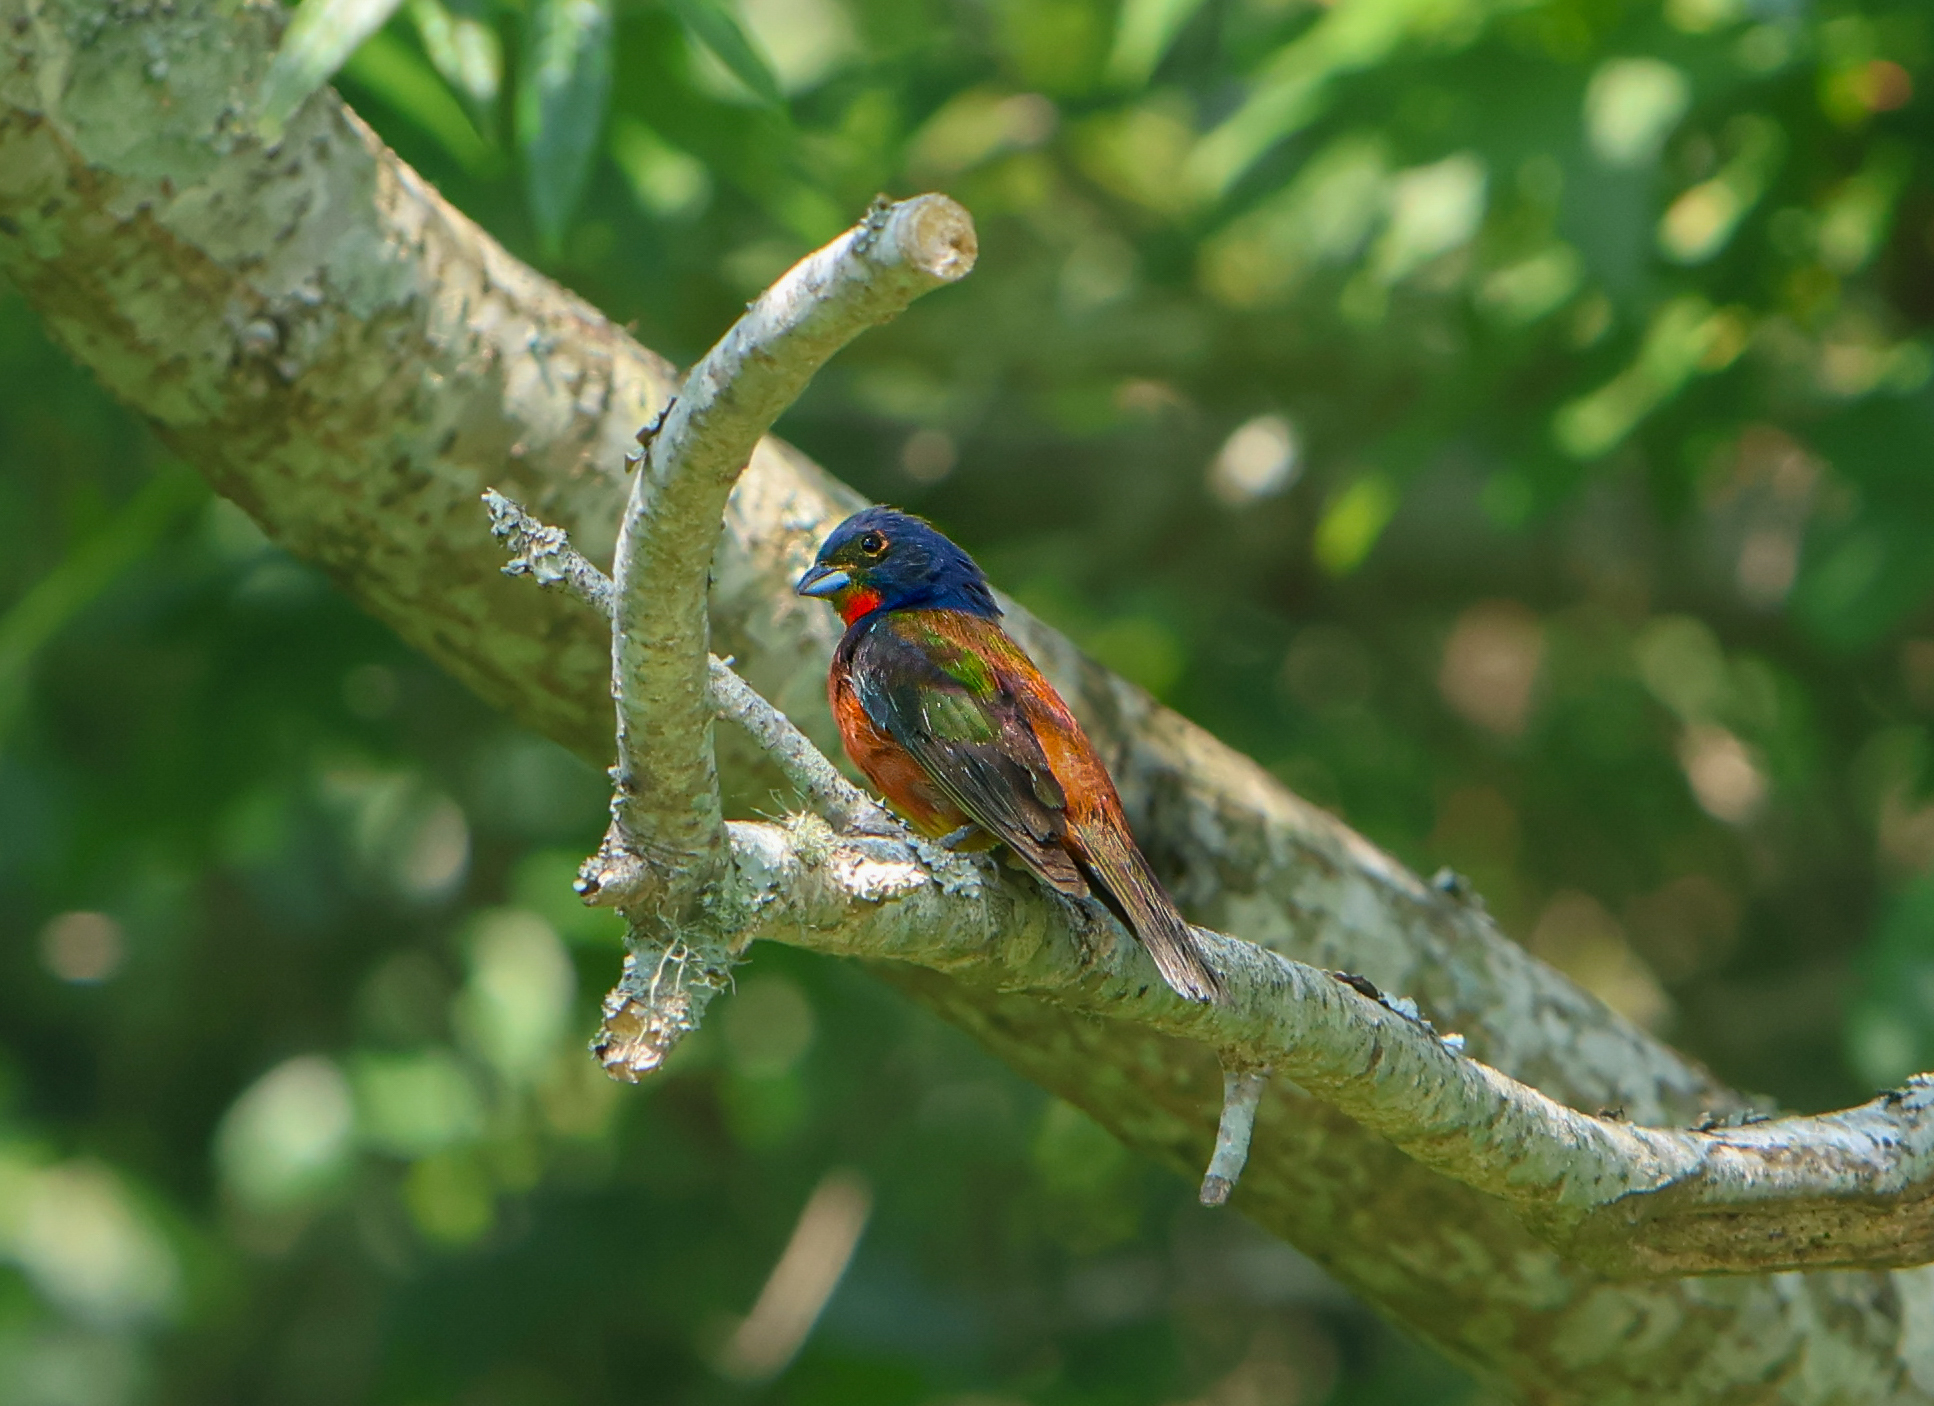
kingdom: Animalia
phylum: Chordata
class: Aves
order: Passeriformes
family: Cardinalidae
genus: Passerina
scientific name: Passerina ciris
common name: Painted bunting
